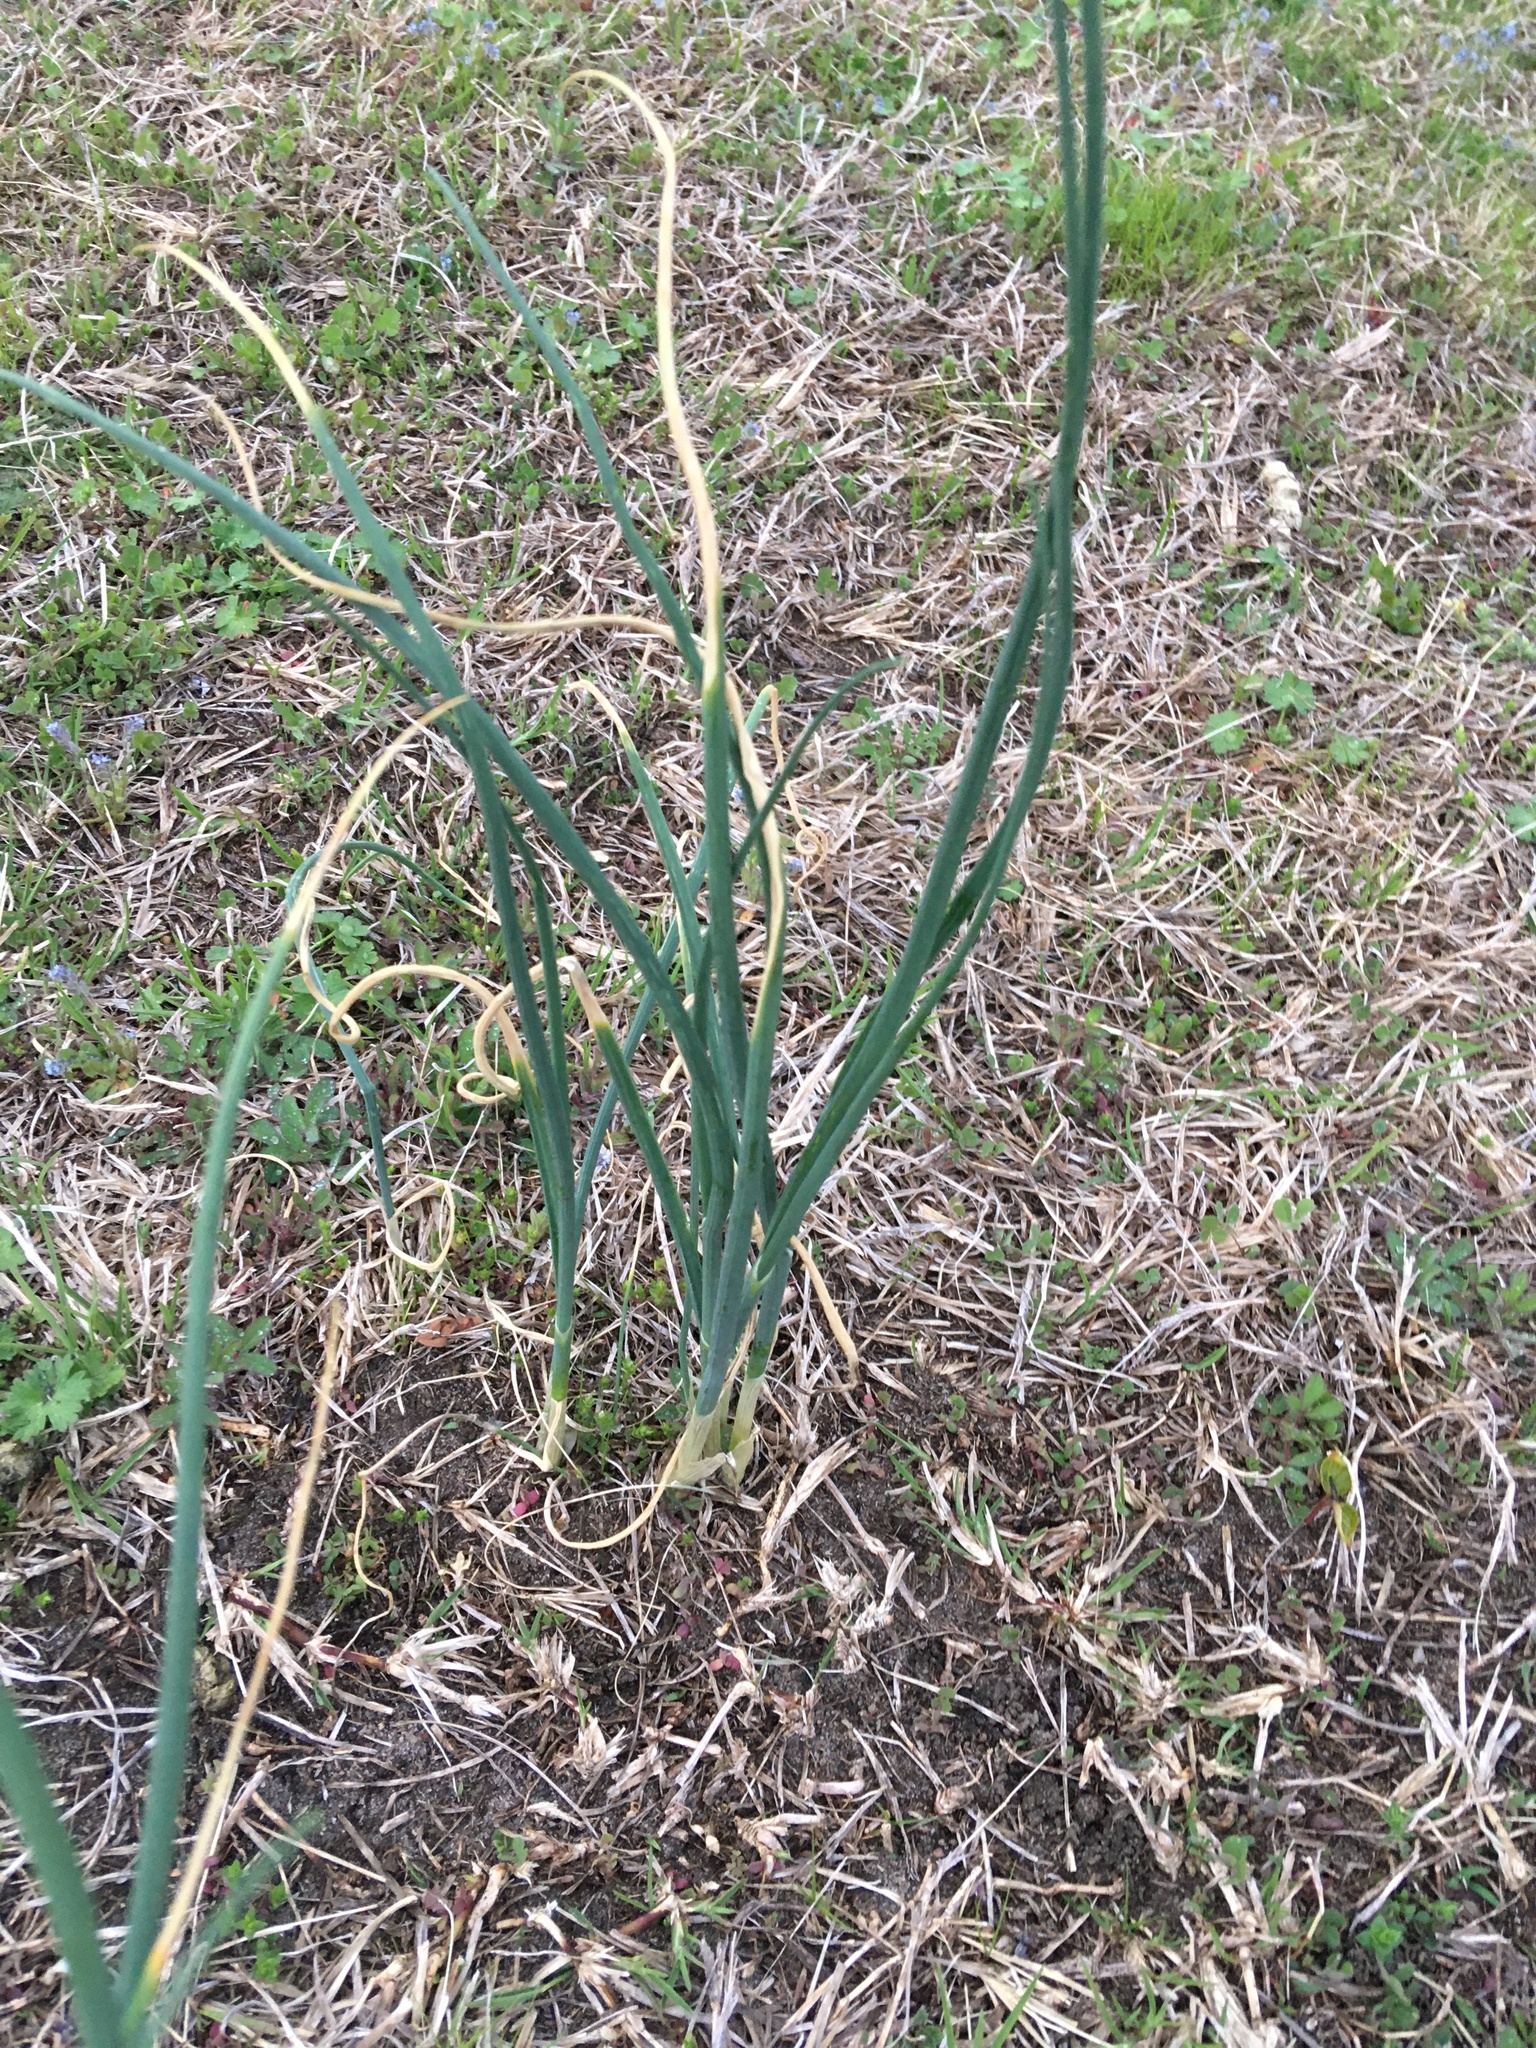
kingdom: Plantae
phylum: Tracheophyta
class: Liliopsida
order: Asparagales
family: Amaryllidaceae
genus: Allium
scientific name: Allium vineale
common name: Crow garlic
